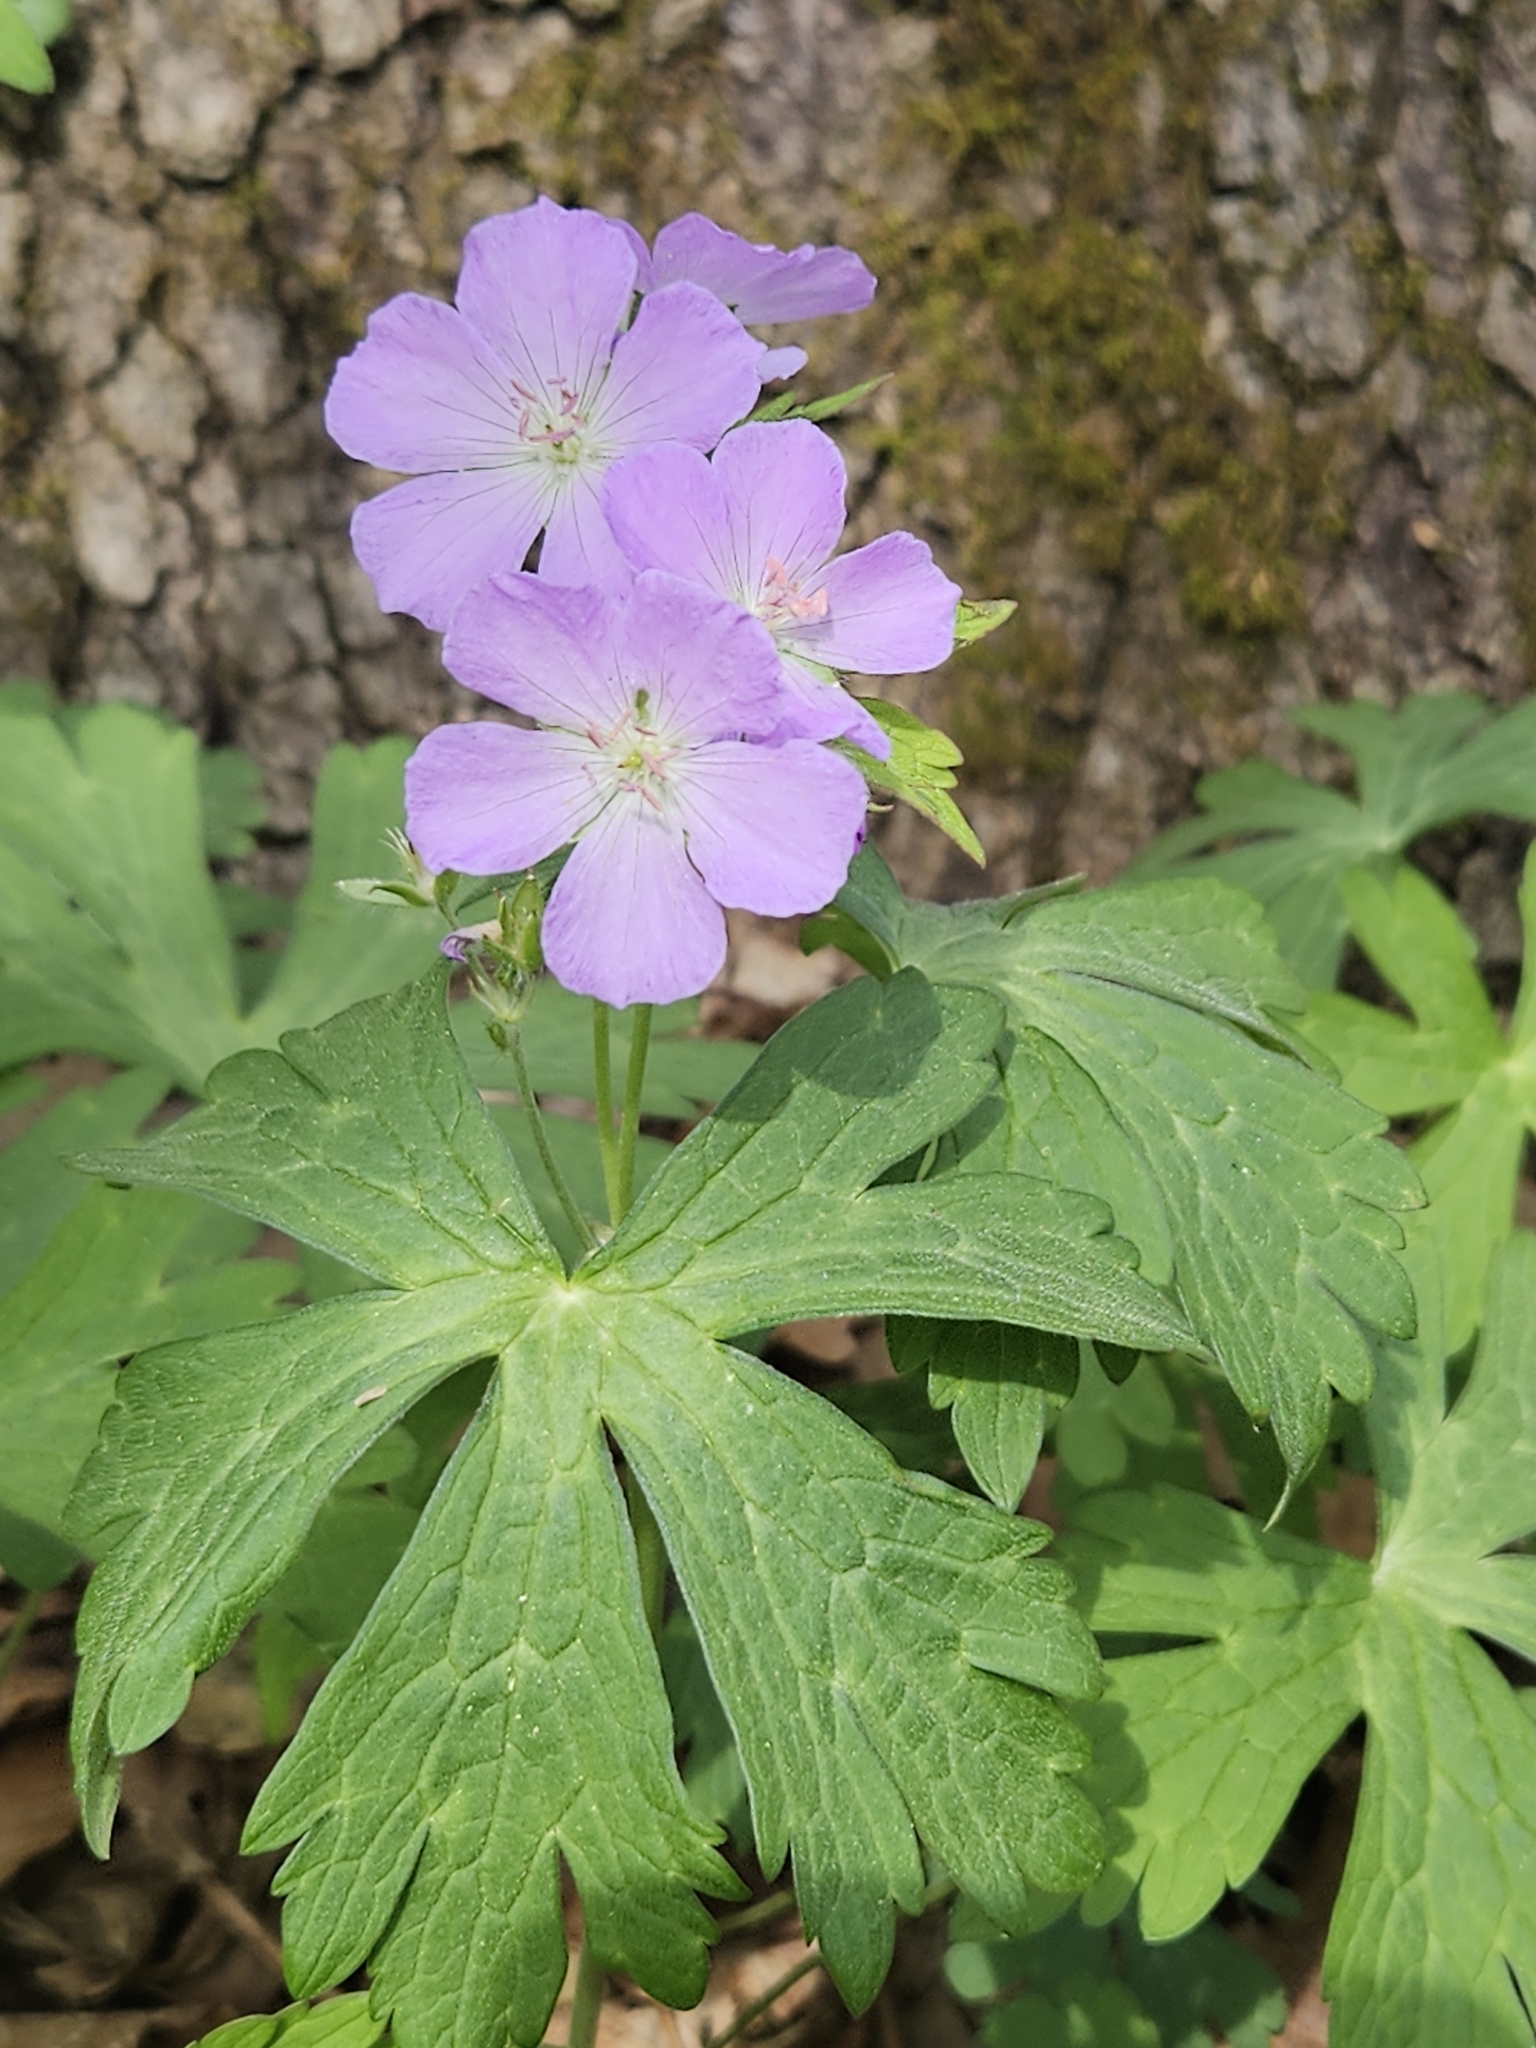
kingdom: Plantae
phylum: Tracheophyta
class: Magnoliopsida
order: Geraniales
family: Geraniaceae
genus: Geranium
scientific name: Geranium maculatum
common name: Spotted geranium
